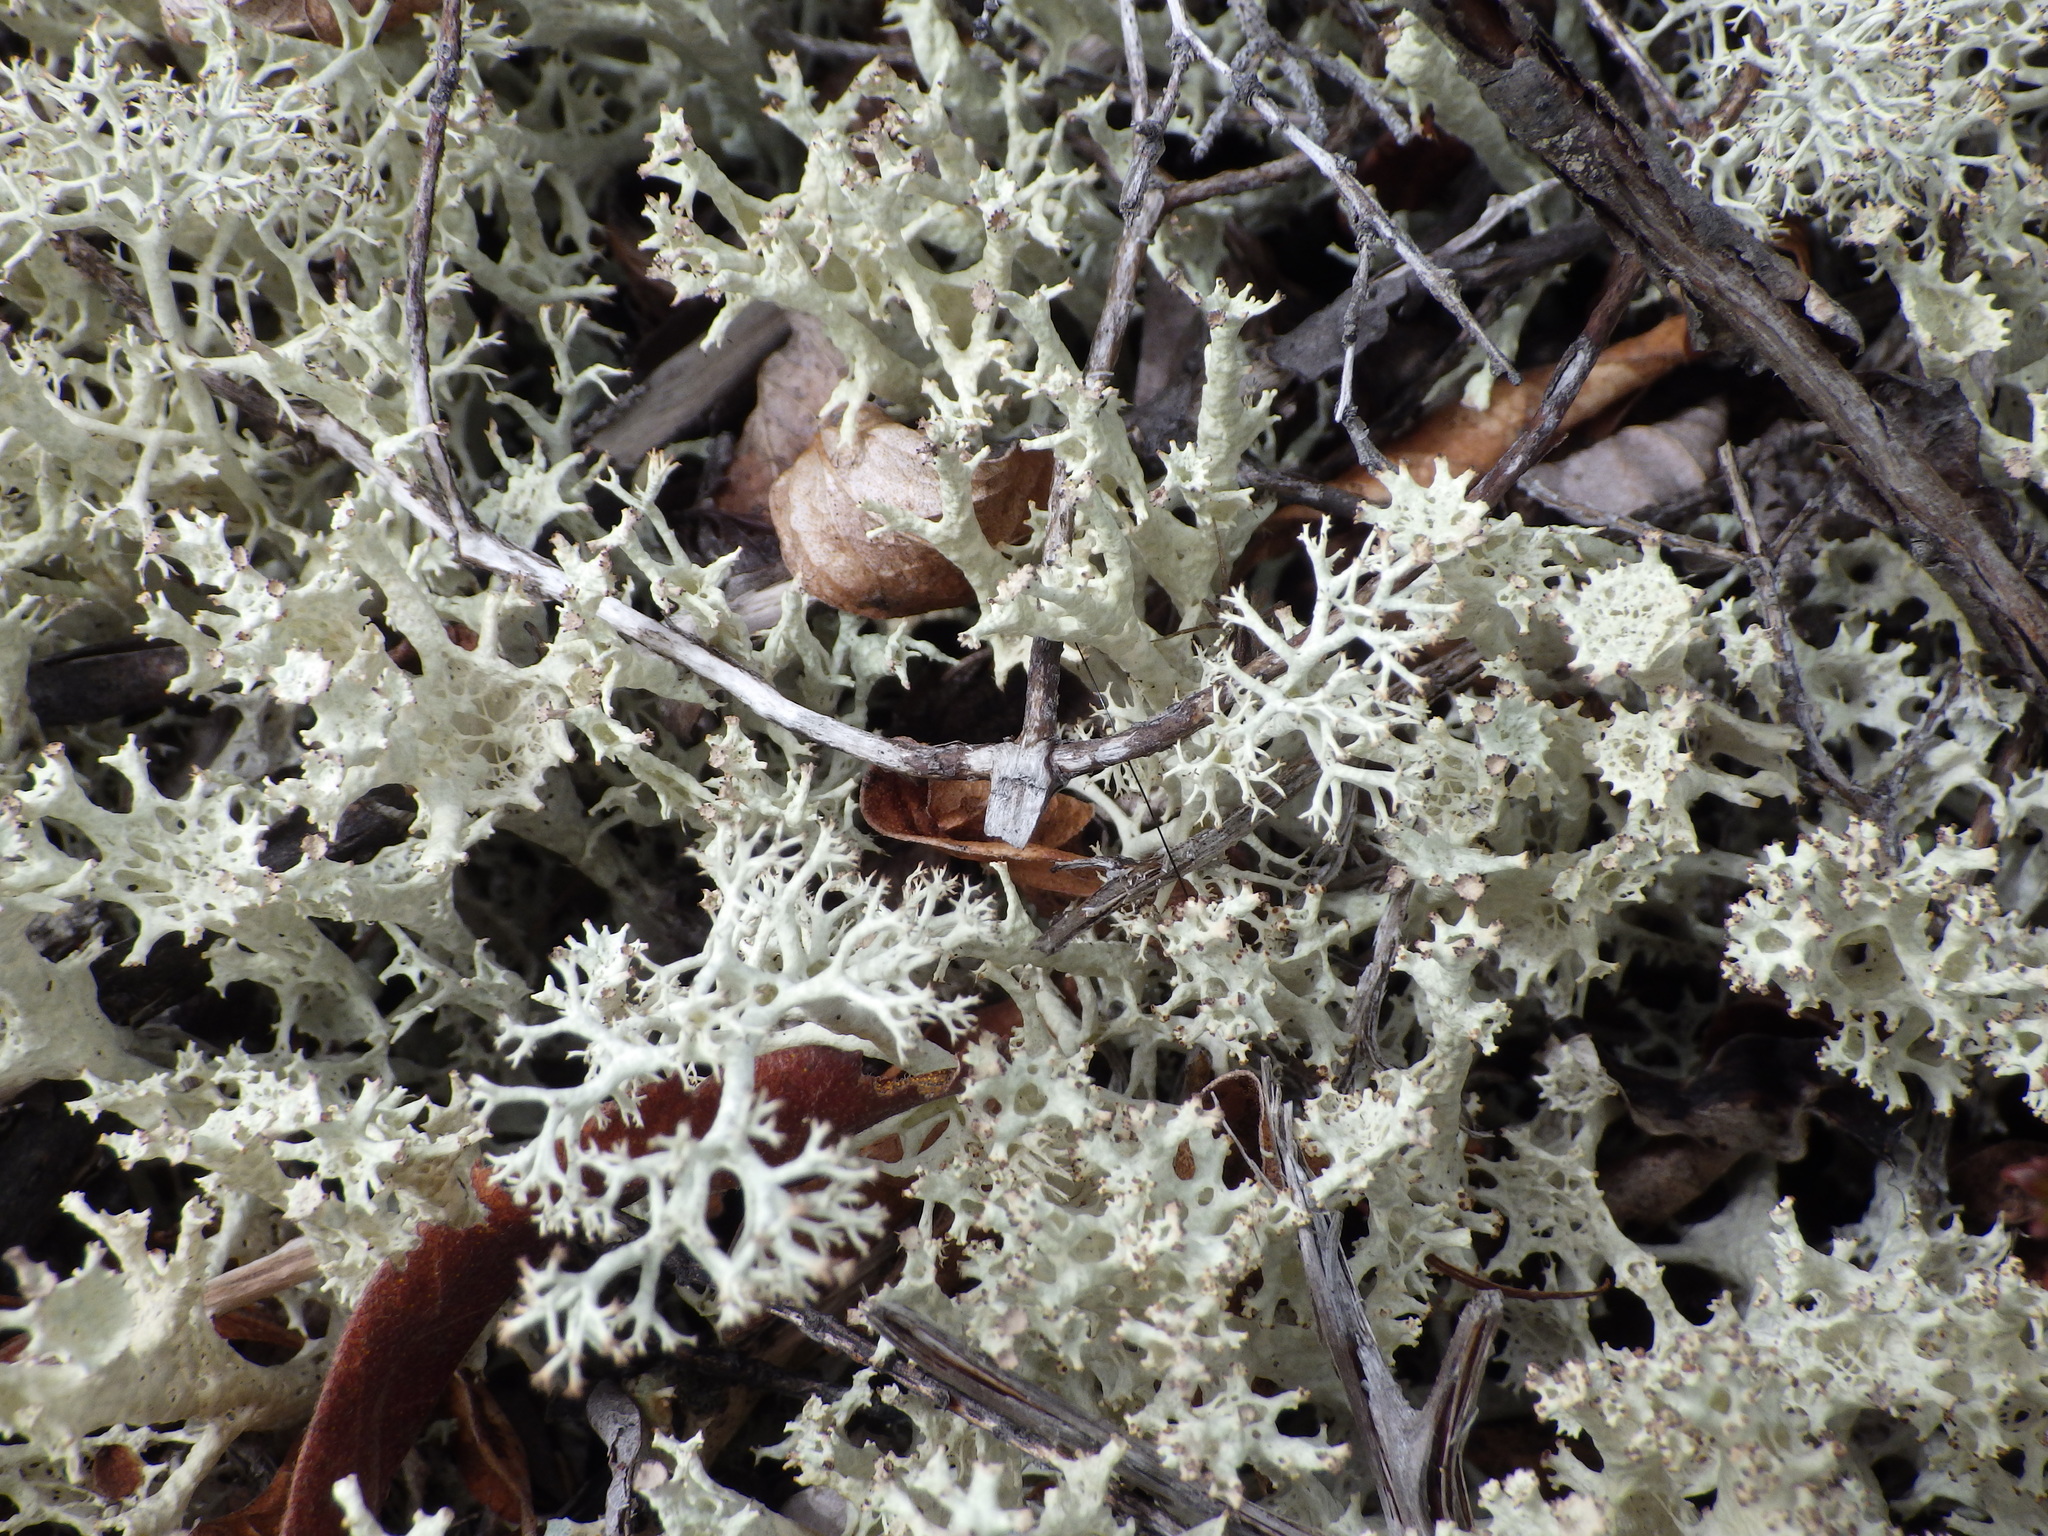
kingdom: Fungi
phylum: Ascomycota
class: Lecanoromycetes
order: Lecanorales
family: Cladoniaceae
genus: Cladonia
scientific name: Cladonia boryi
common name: Fishnet cladonia
